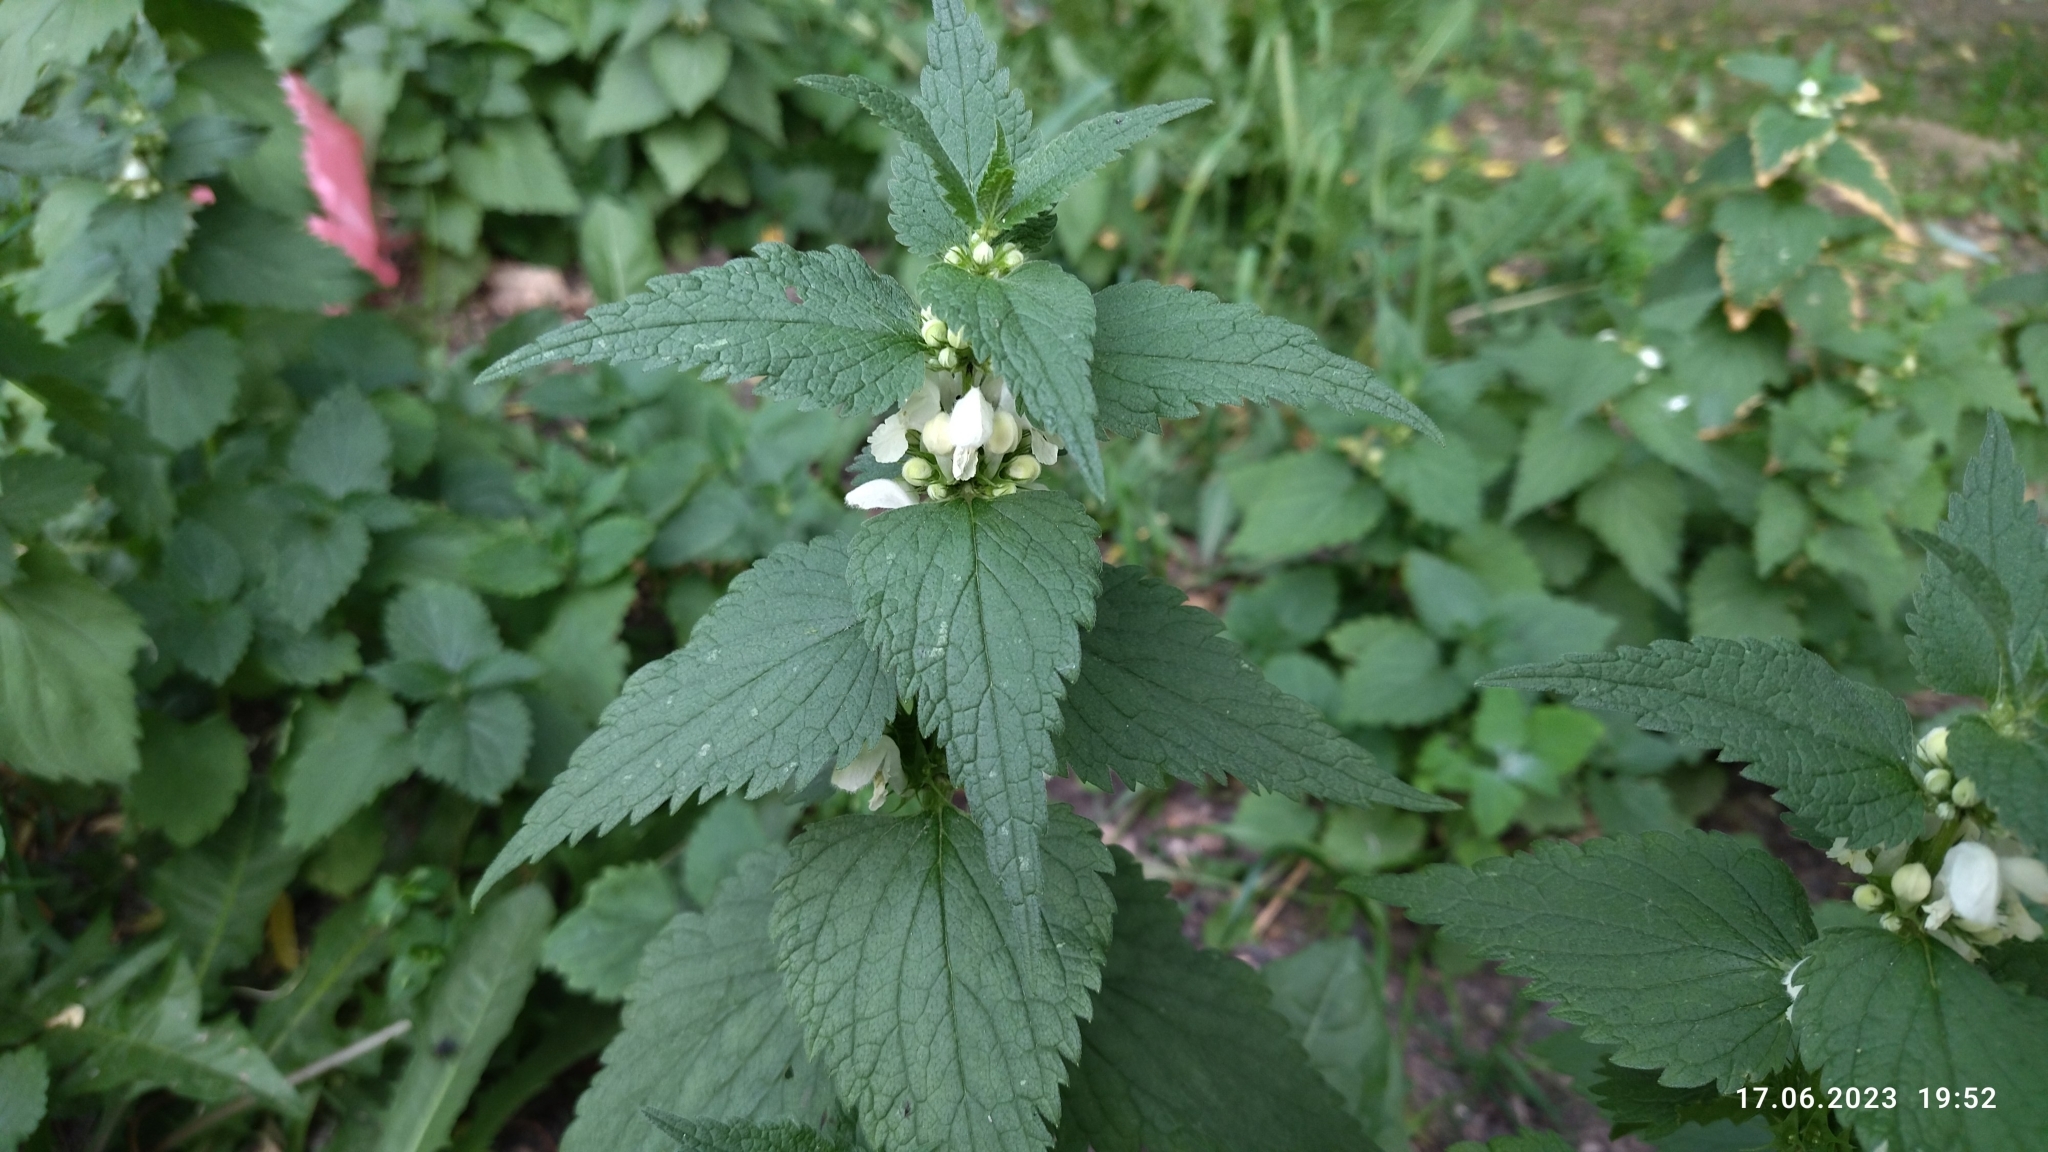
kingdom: Plantae
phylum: Tracheophyta
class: Magnoliopsida
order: Lamiales
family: Lamiaceae
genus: Lamium
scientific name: Lamium album
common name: White dead-nettle
